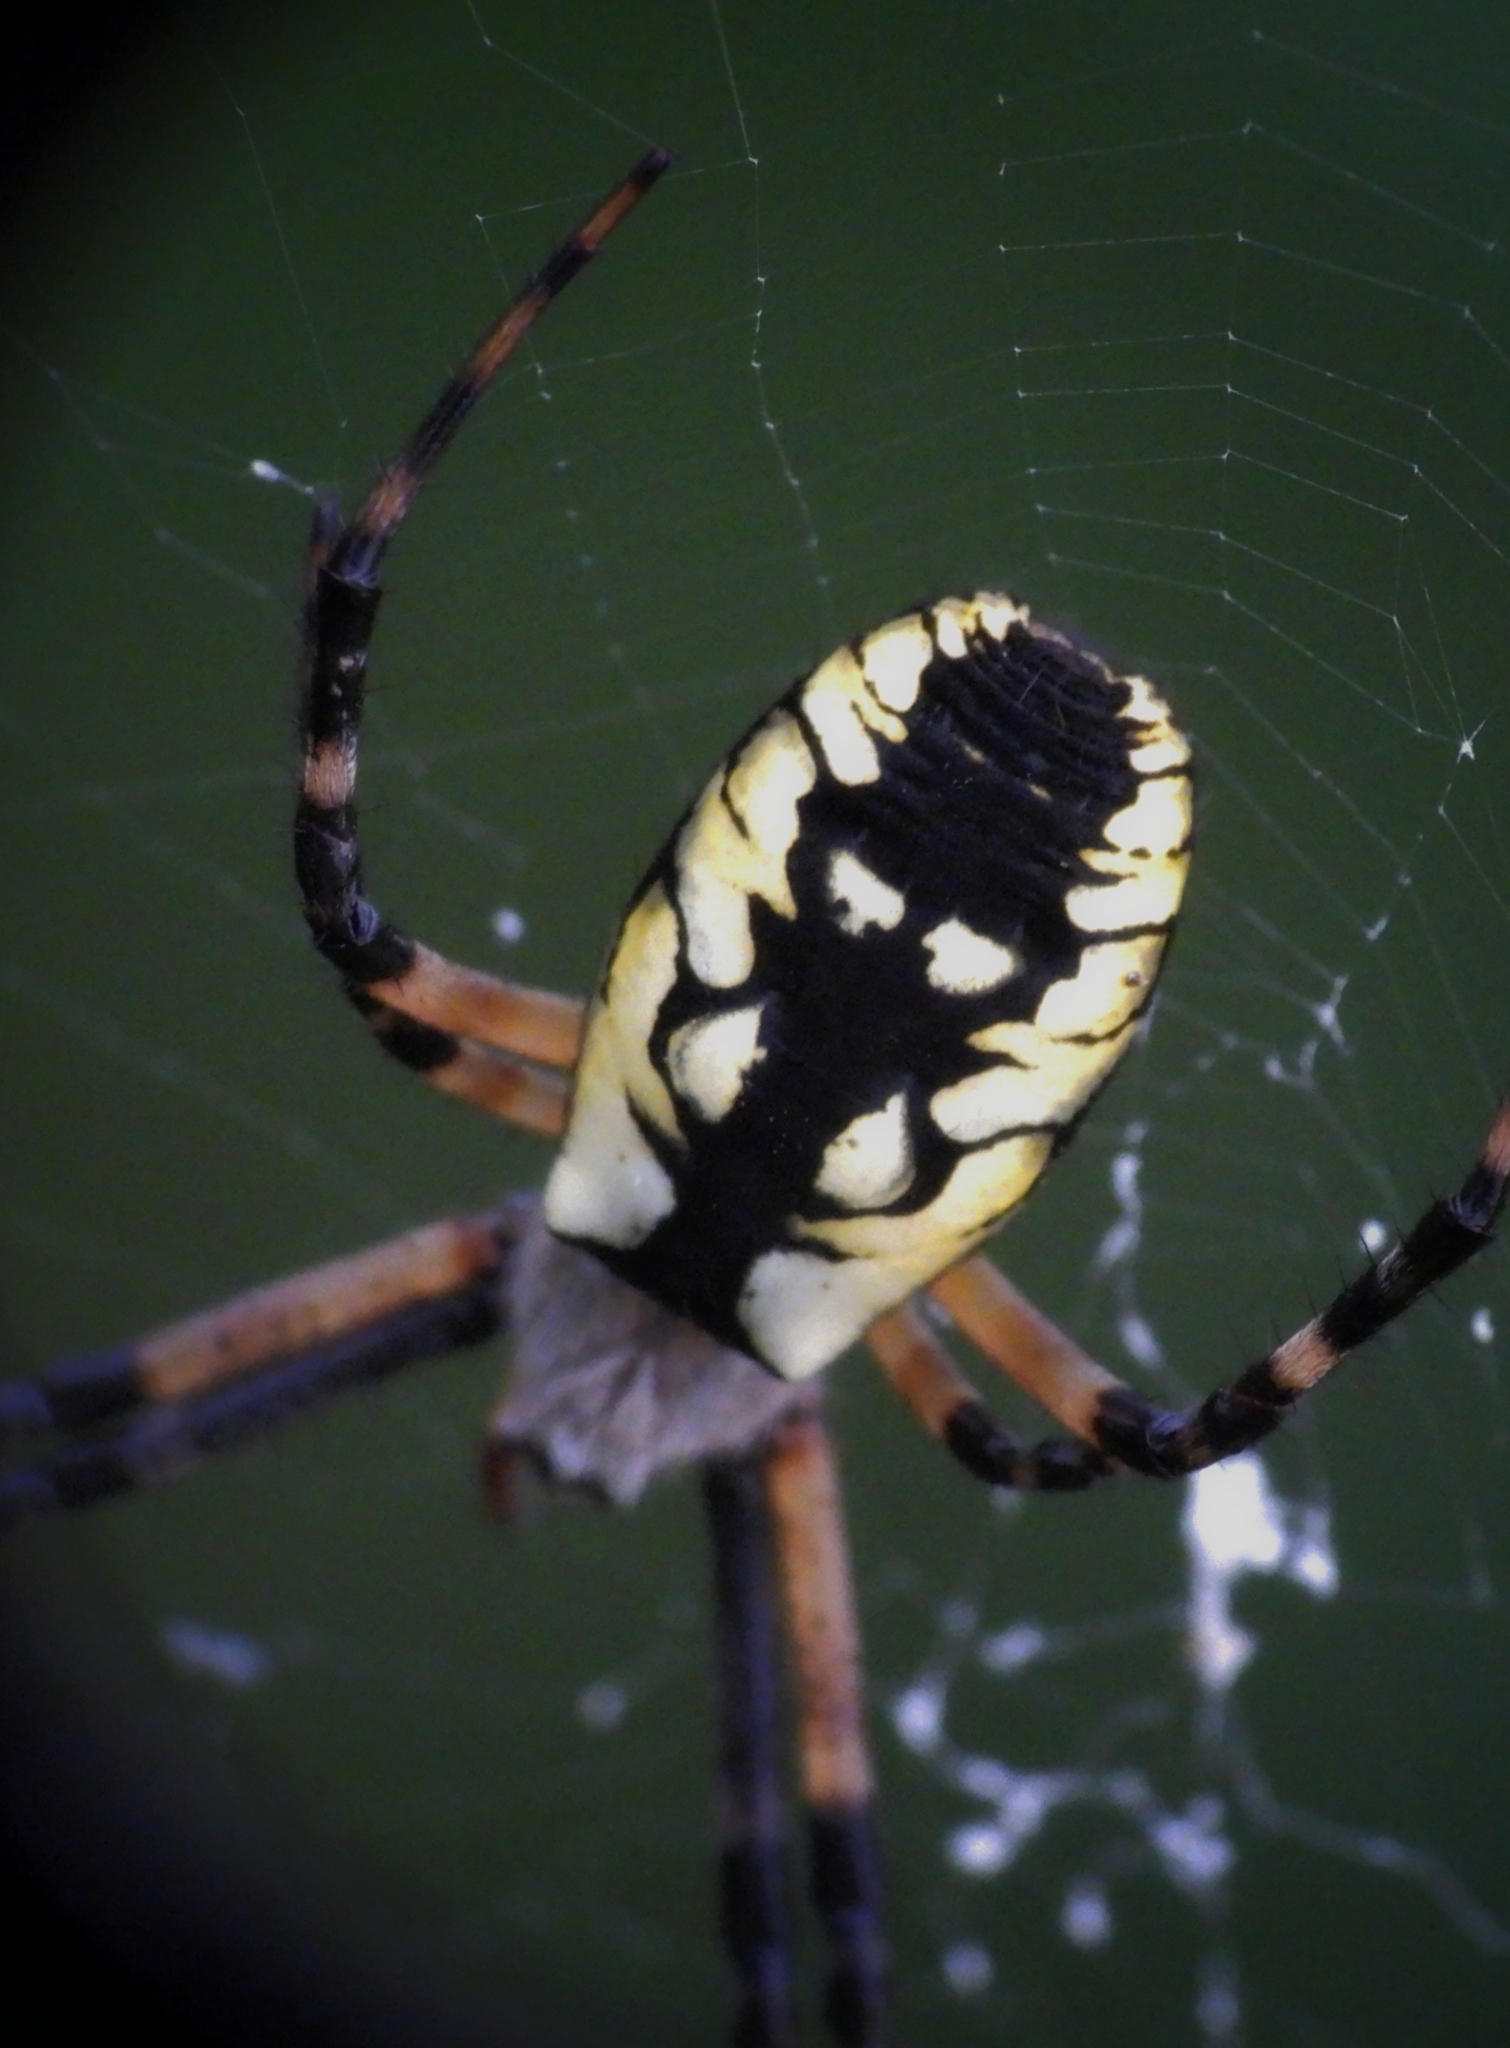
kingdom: Animalia
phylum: Arthropoda
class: Arachnida
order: Araneae
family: Araneidae
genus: Argiope
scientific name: Argiope aurantia
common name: Orb weavers
